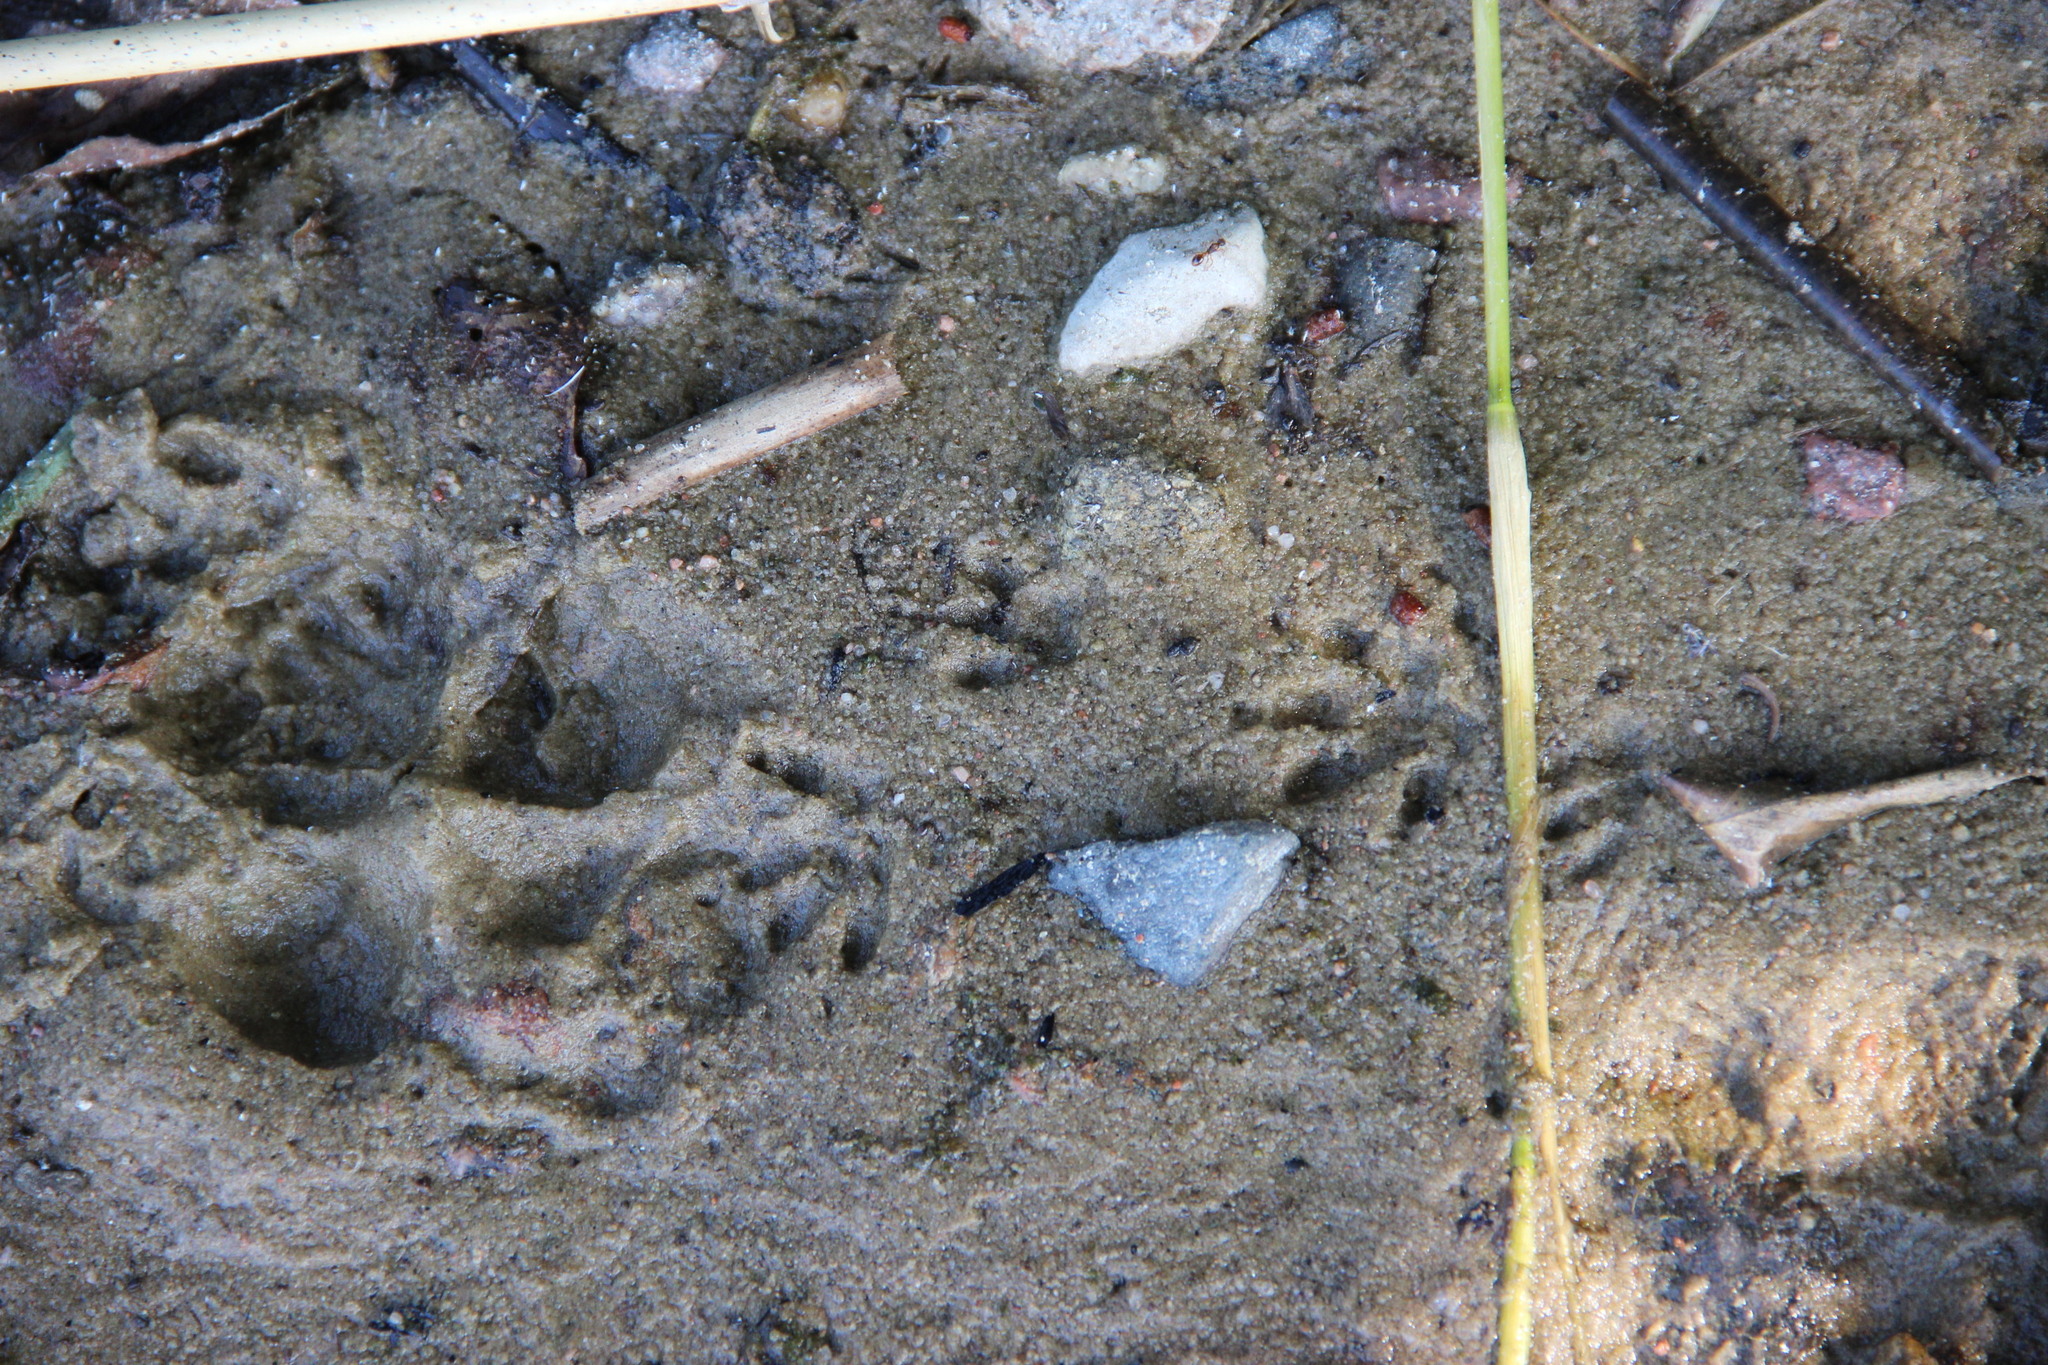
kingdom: Animalia
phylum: Chordata
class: Mammalia
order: Carnivora
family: Mustelidae
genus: Mustela
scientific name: Mustela
